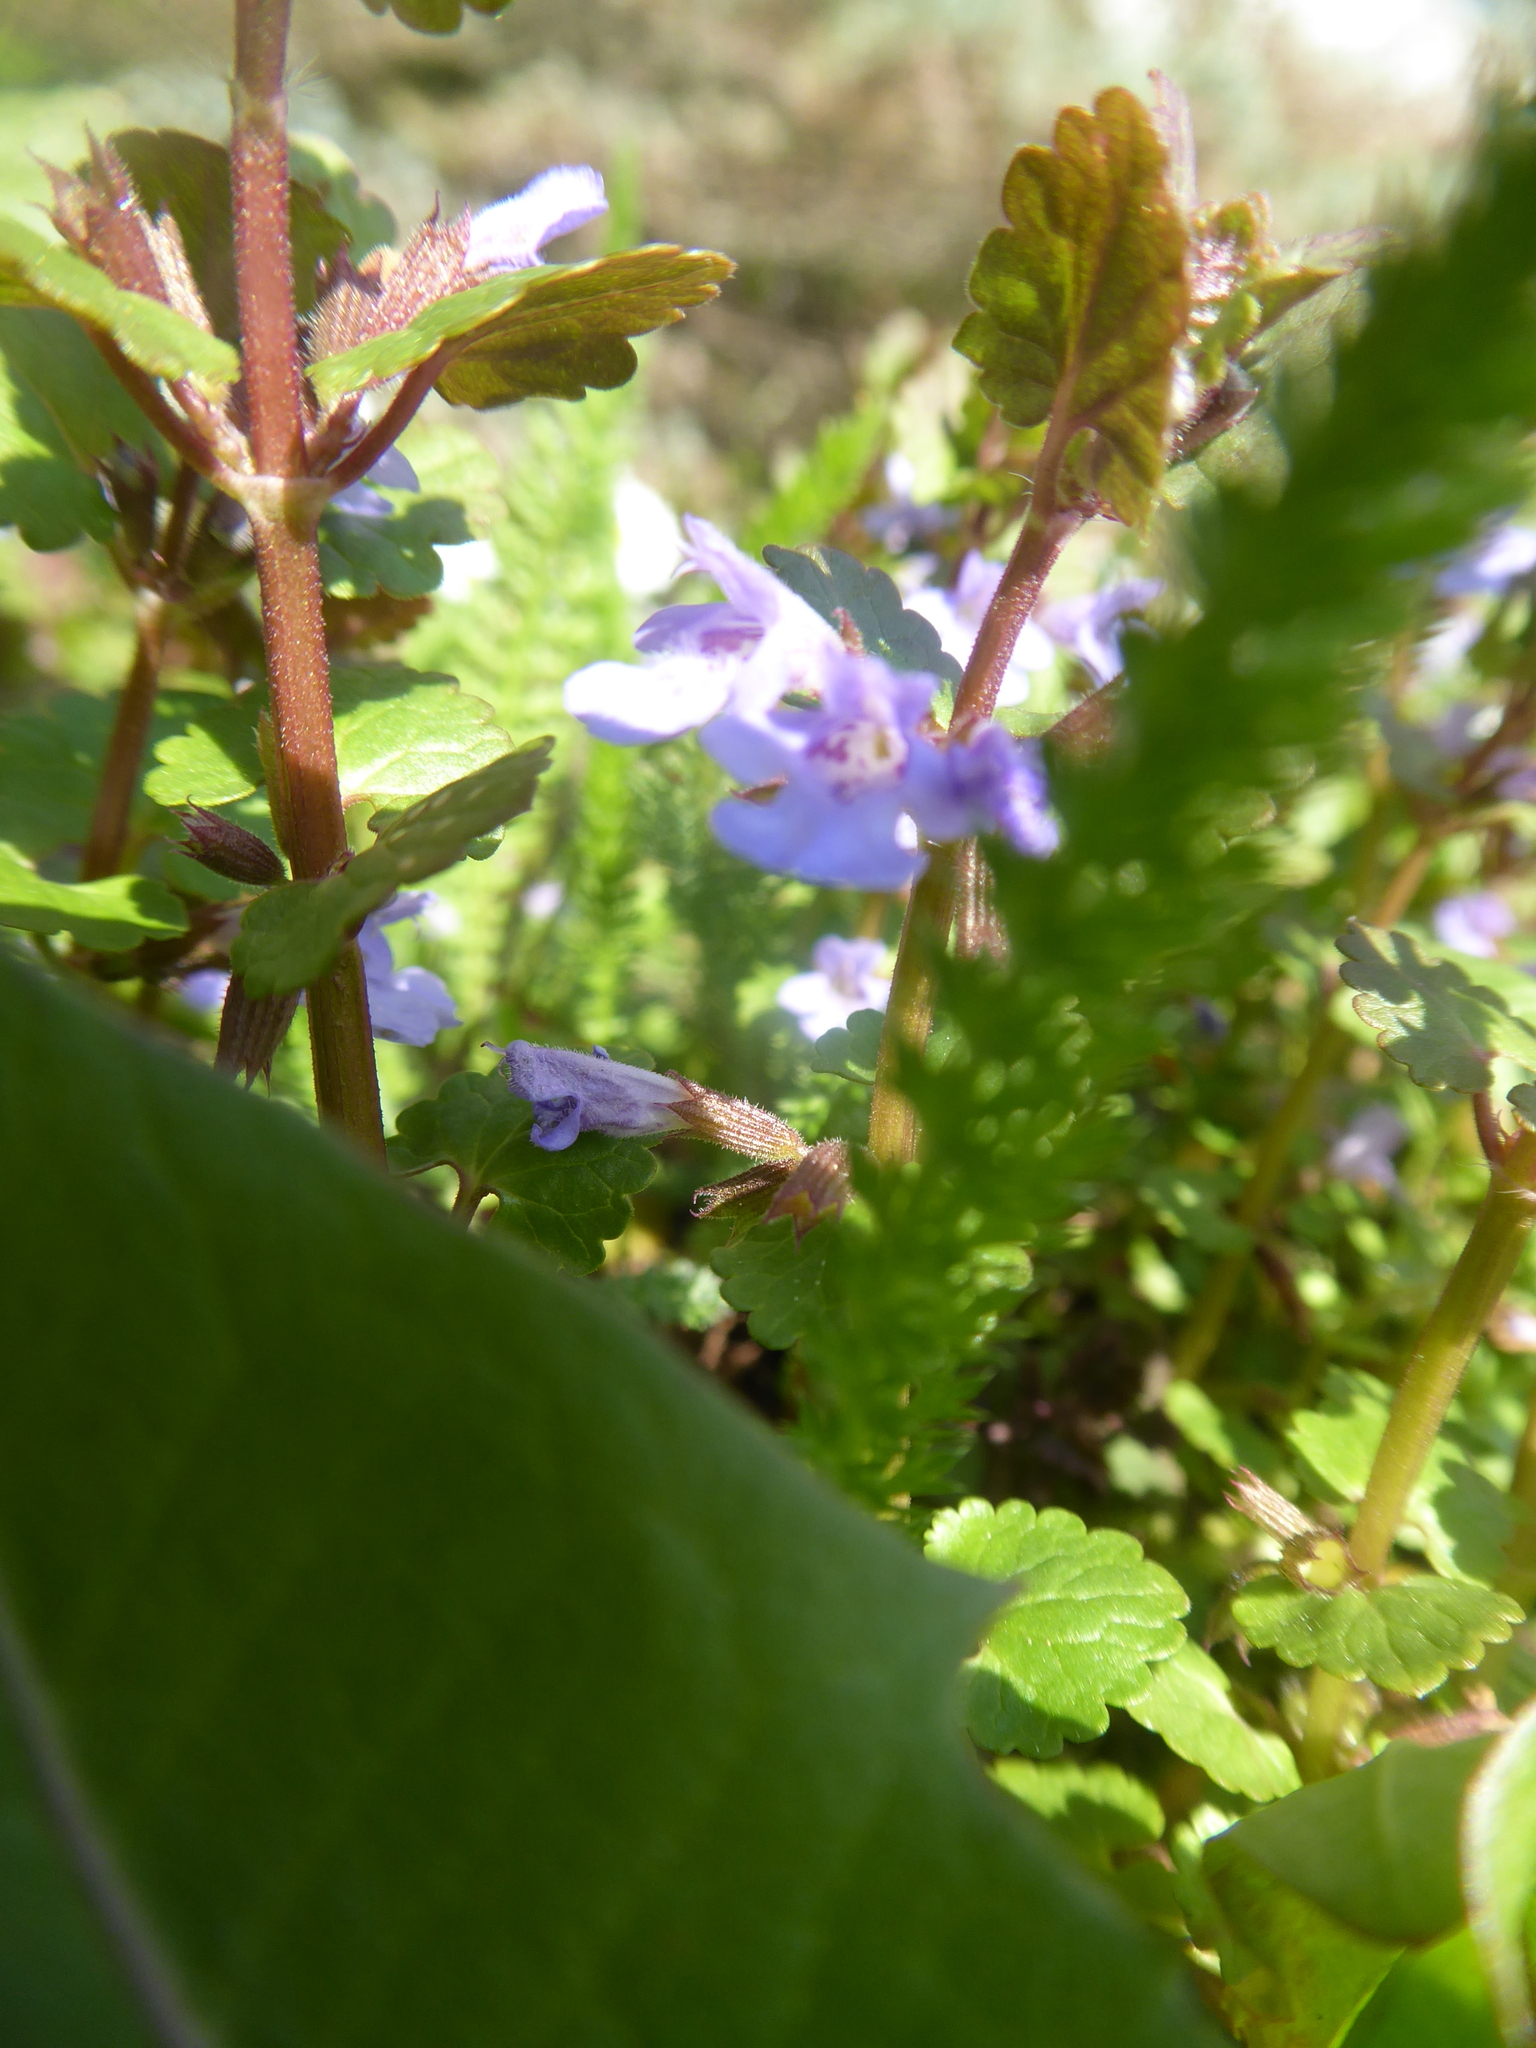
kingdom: Plantae
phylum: Tracheophyta
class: Magnoliopsida
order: Lamiales
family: Lamiaceae
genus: Glechoma
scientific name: Glechoma hederacea
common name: Ground ivy
